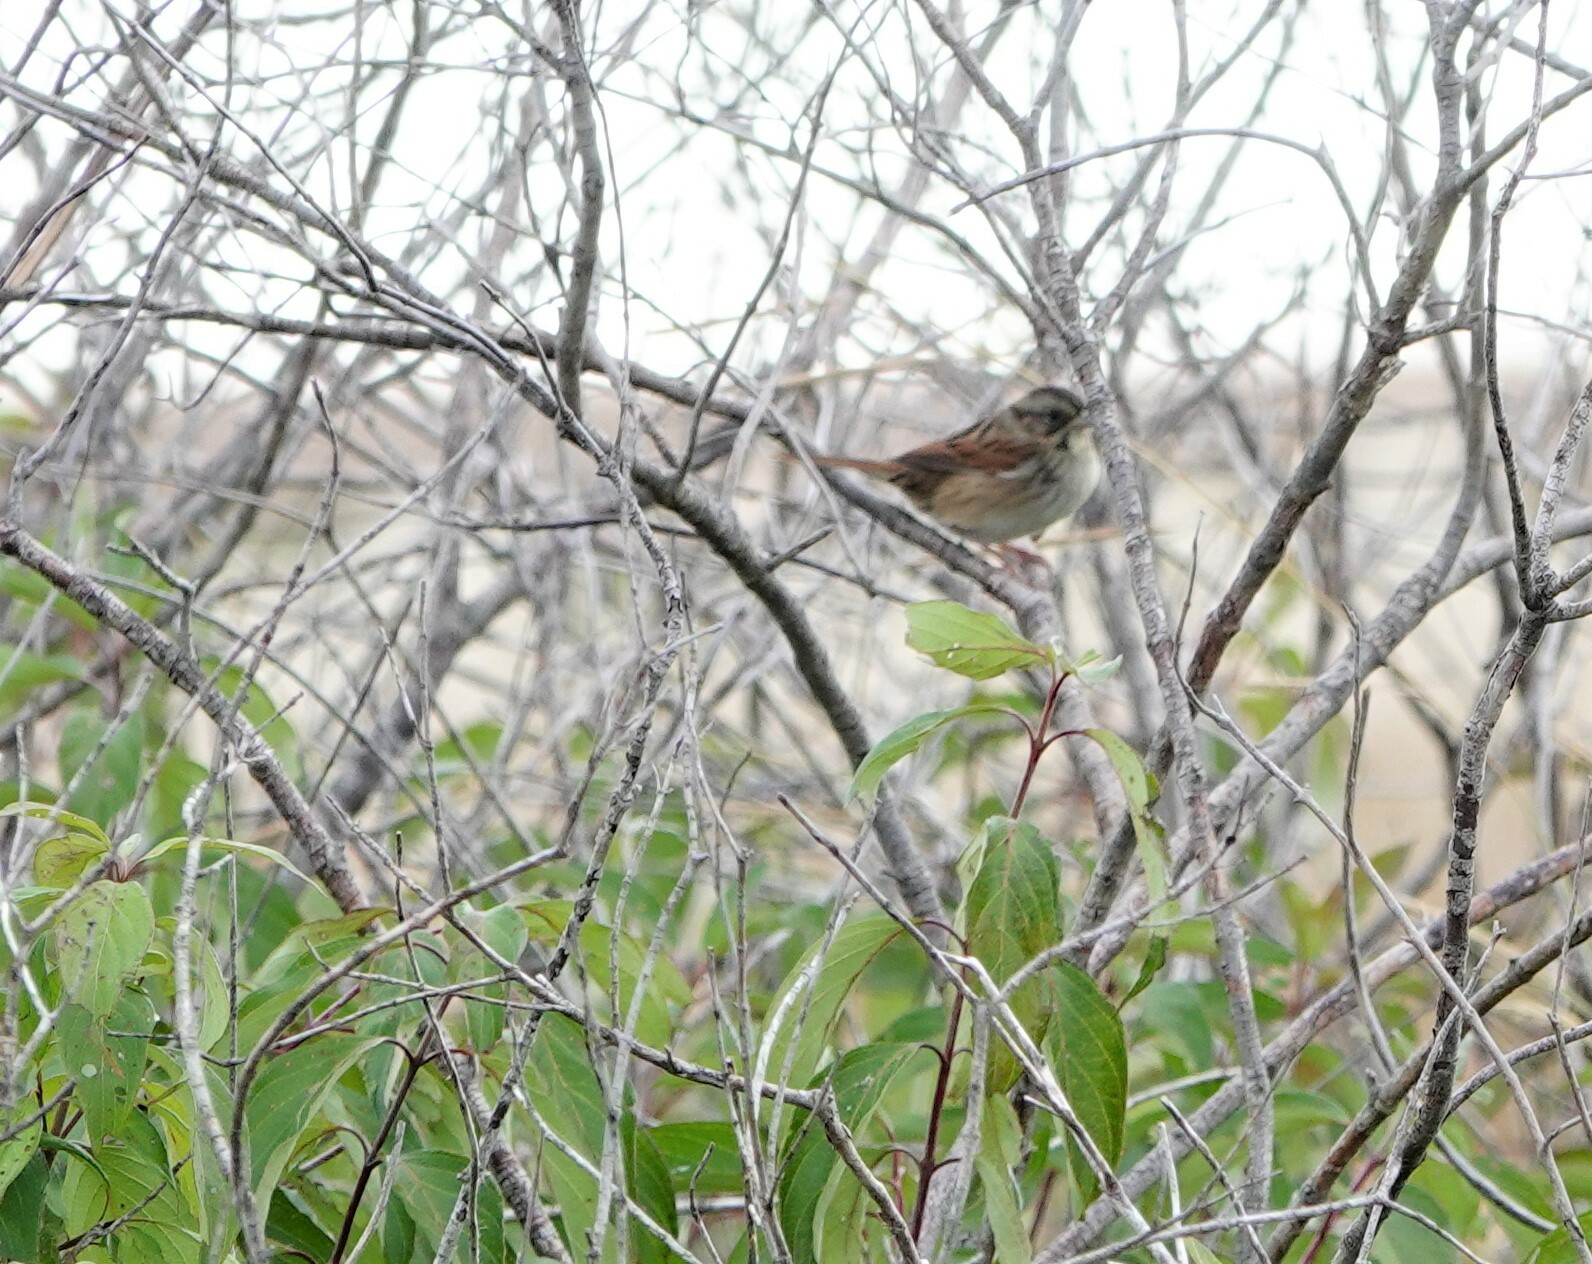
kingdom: Animalia
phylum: Chordata
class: Aves
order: Passeriformes
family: Passerellidae
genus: Melospiza
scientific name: Melospiza georgiana
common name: Swamp sparrow
